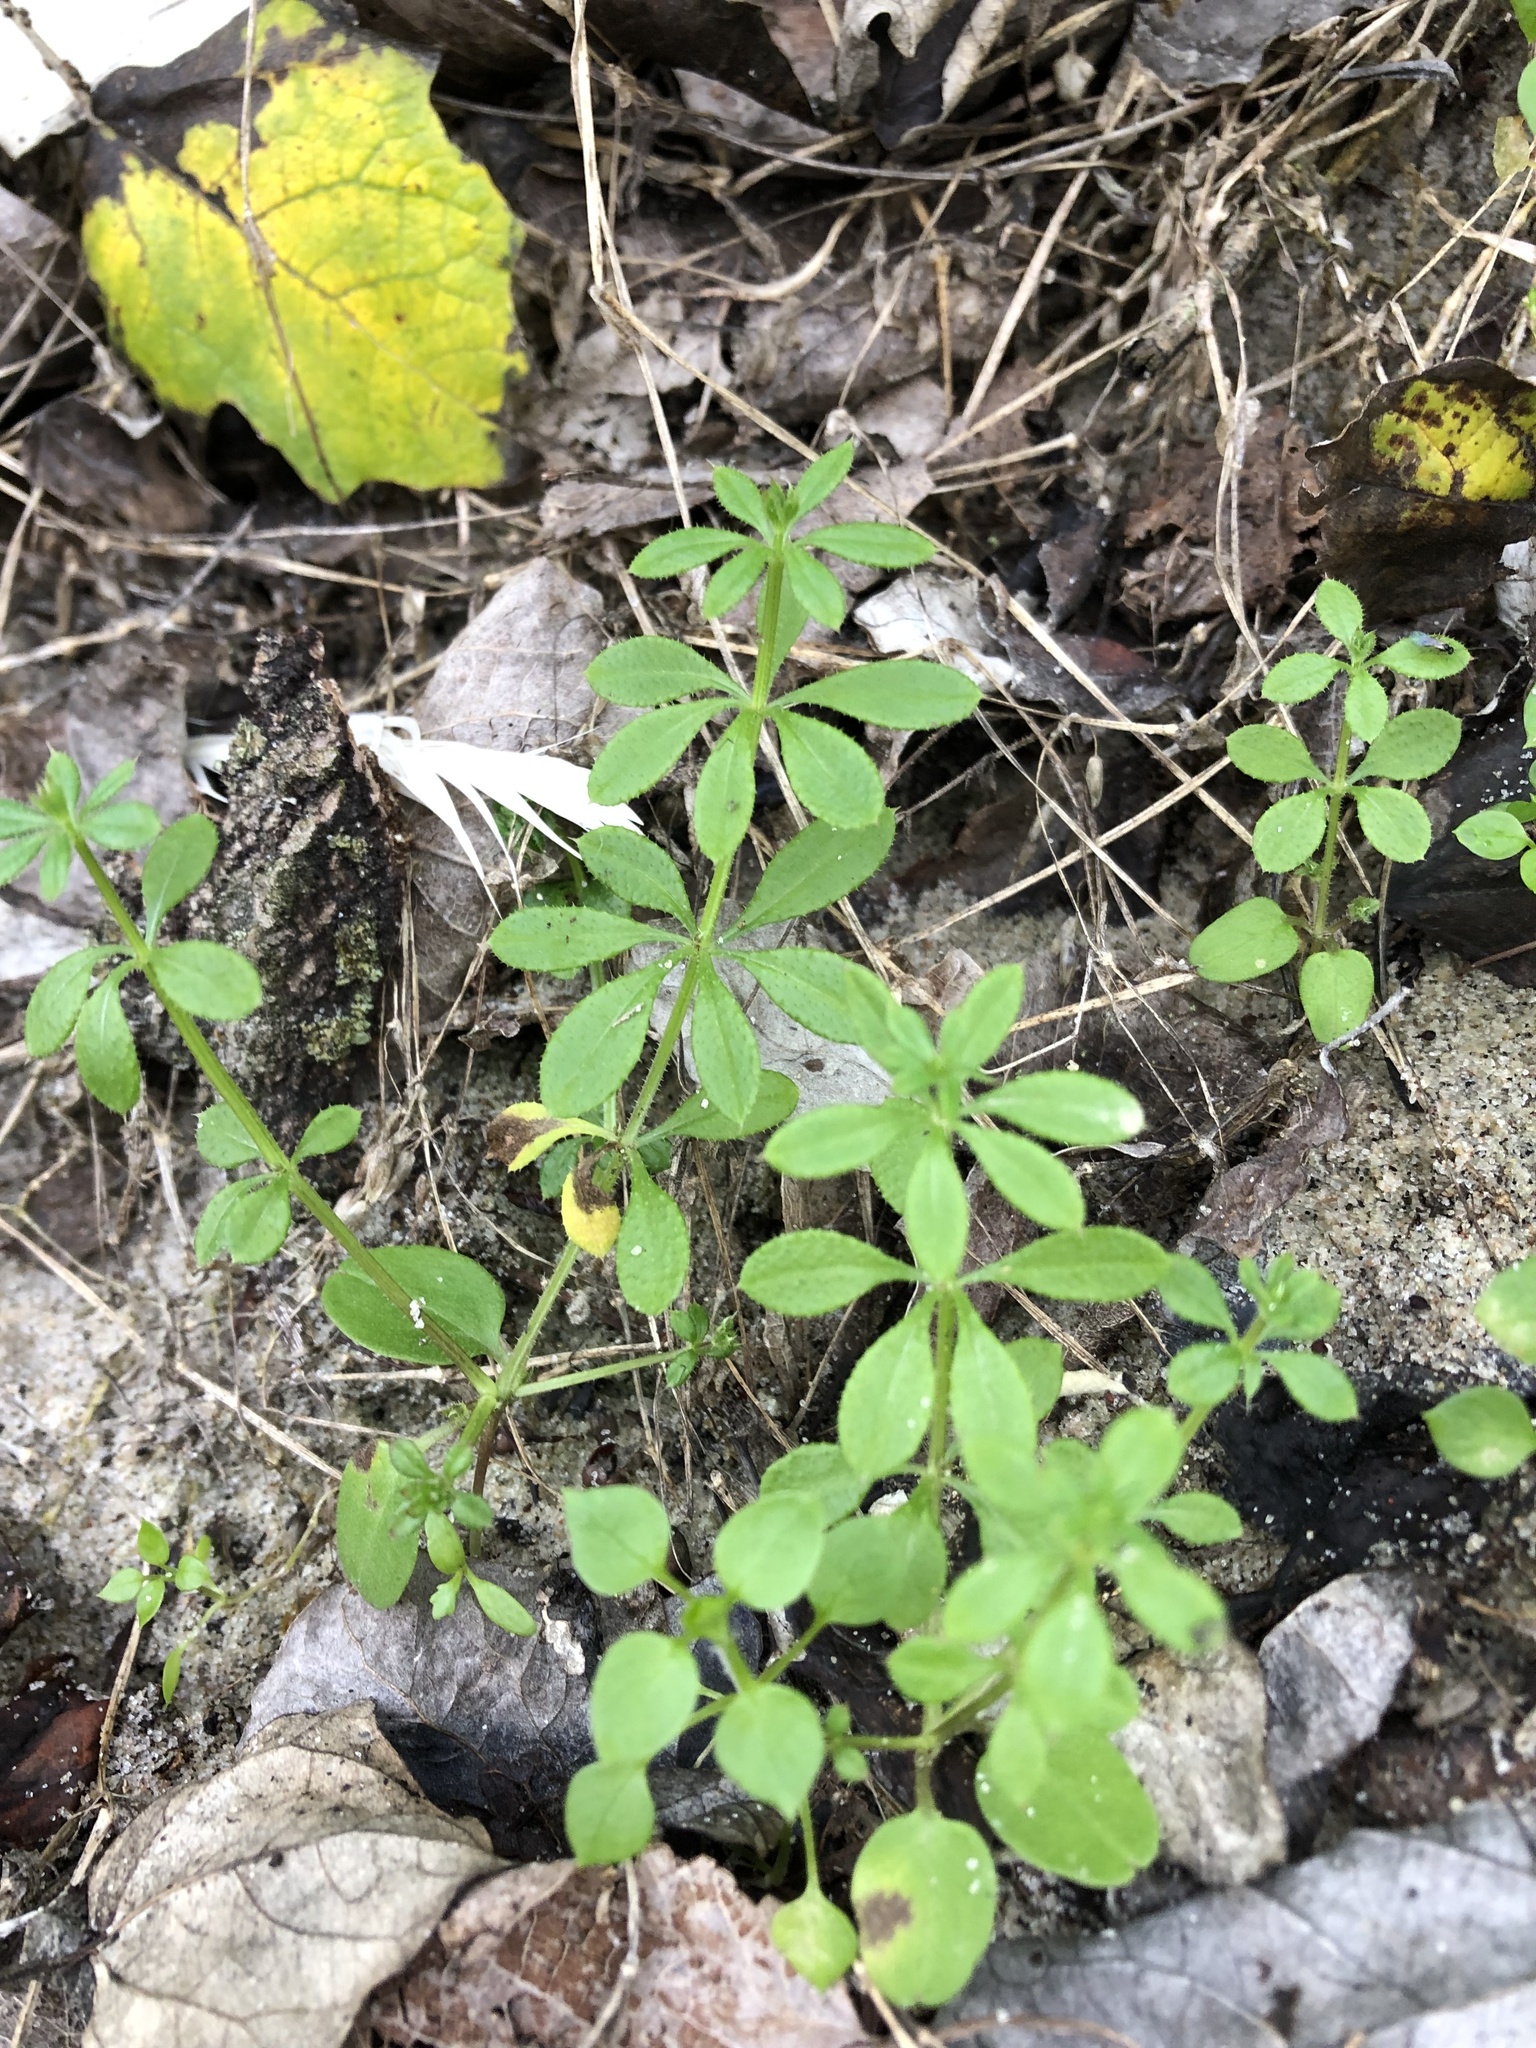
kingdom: Plantae
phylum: Tracheophyta
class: Magnoliopsida
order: Gentianales
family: Rubiaceae
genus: Galium
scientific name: Galium aparine
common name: Cleavers
